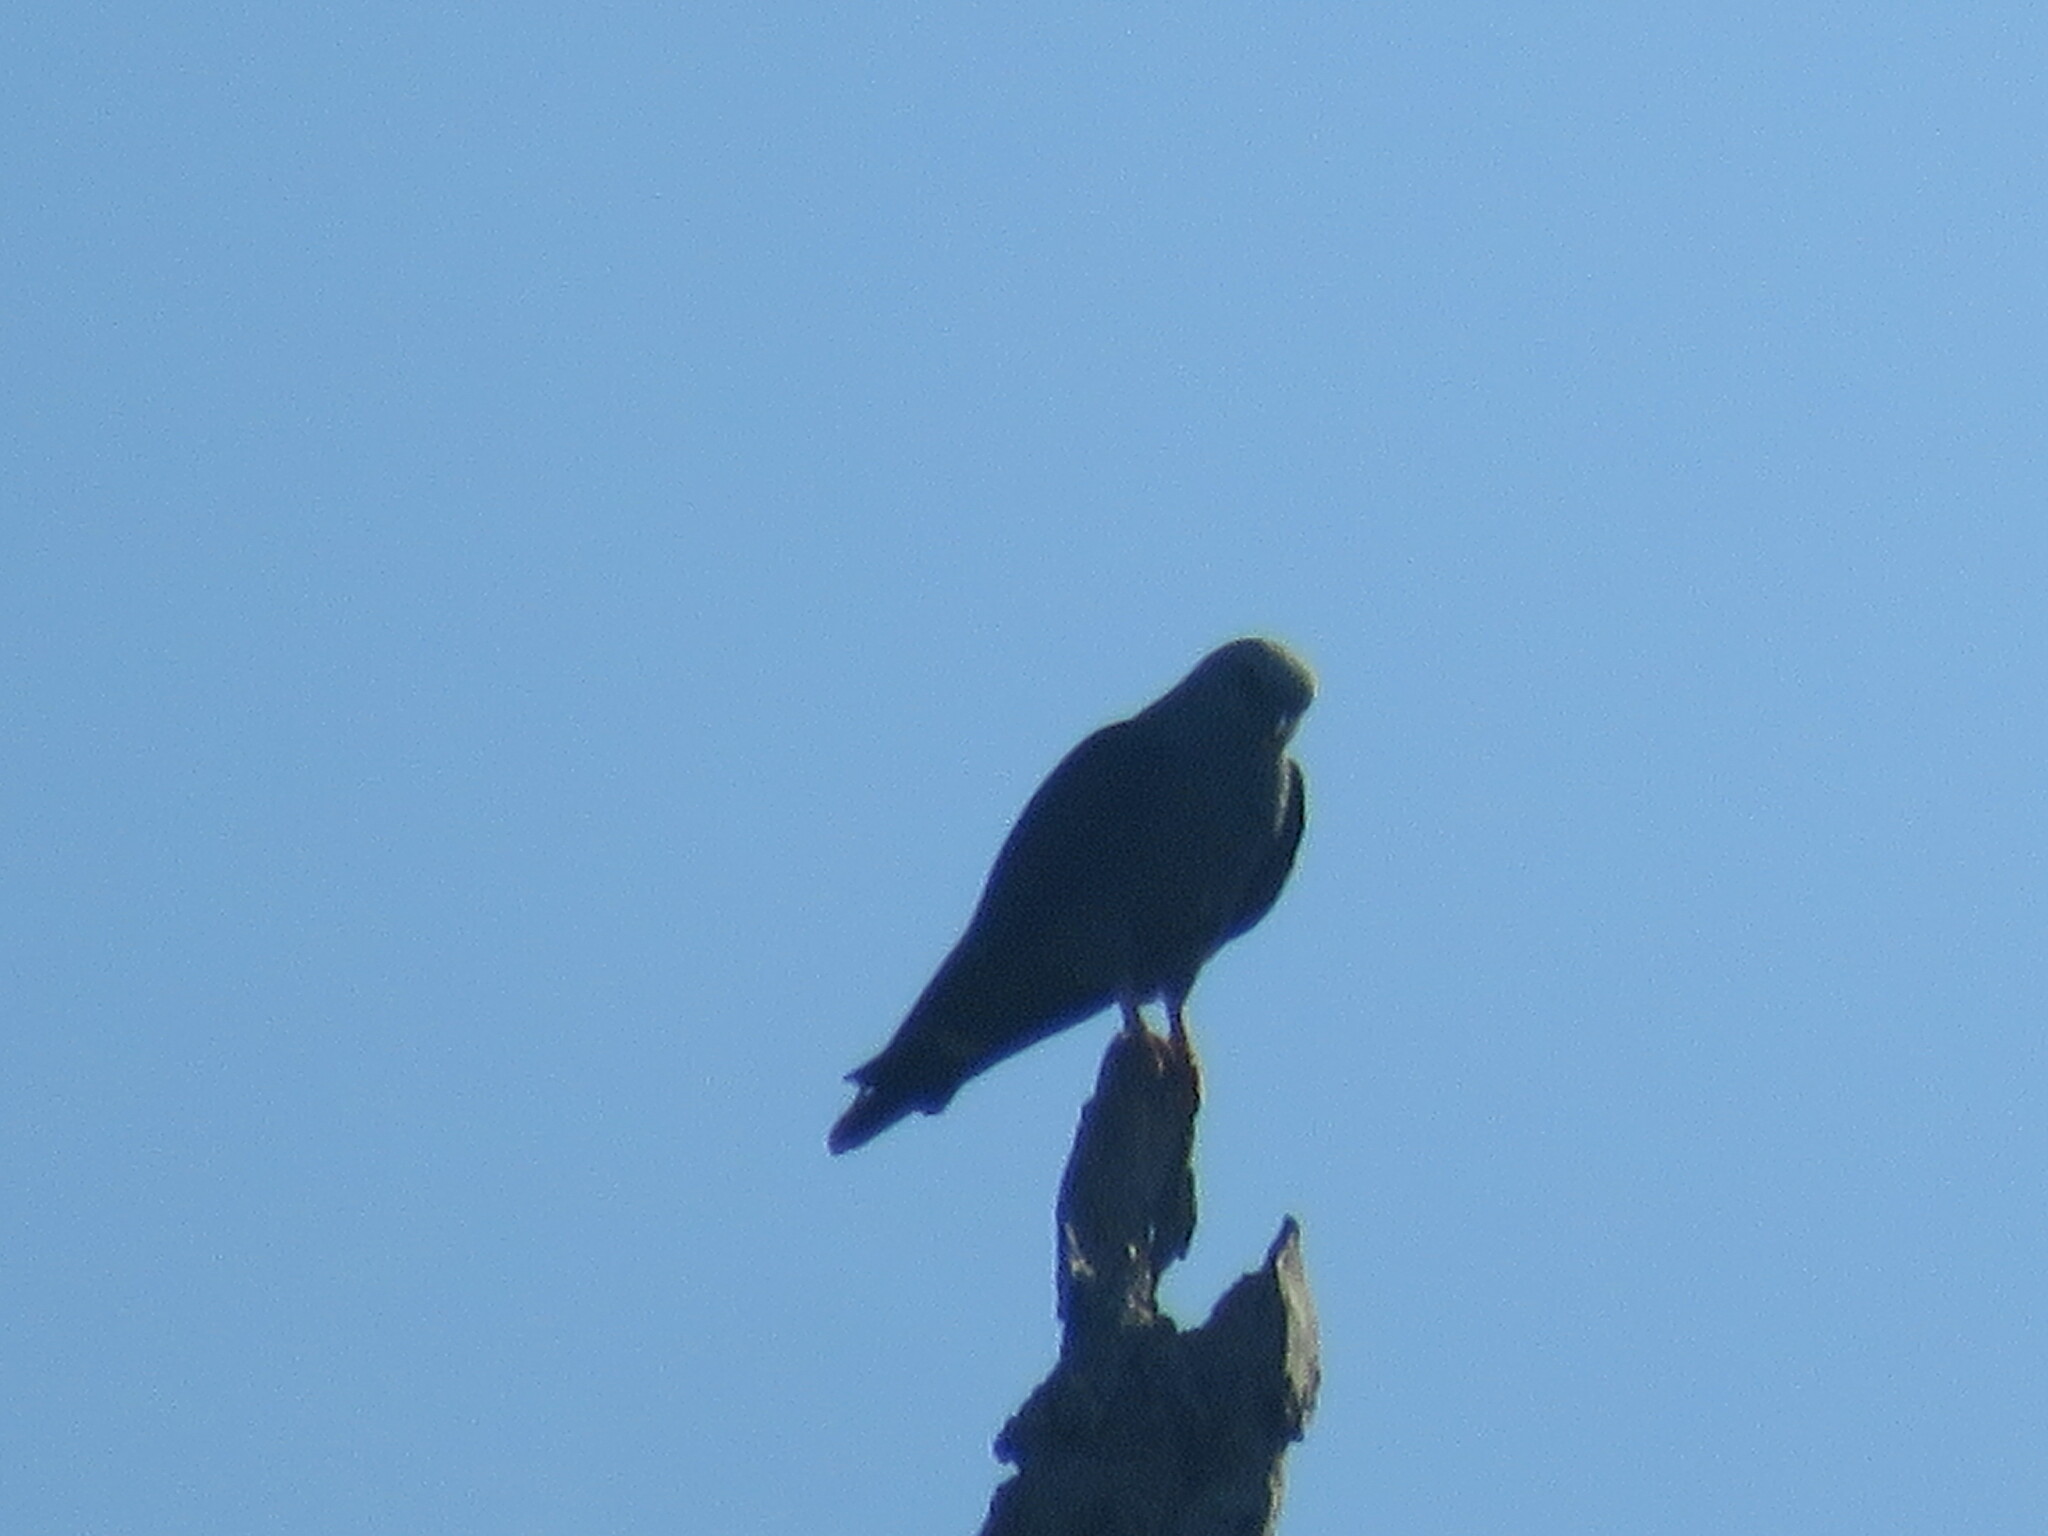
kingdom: Animalia
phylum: Chordata
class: Aves
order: Accipitriformes
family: Accipitridae
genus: Ictinia
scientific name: Ictinia plumbea
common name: Plumbeous kite
